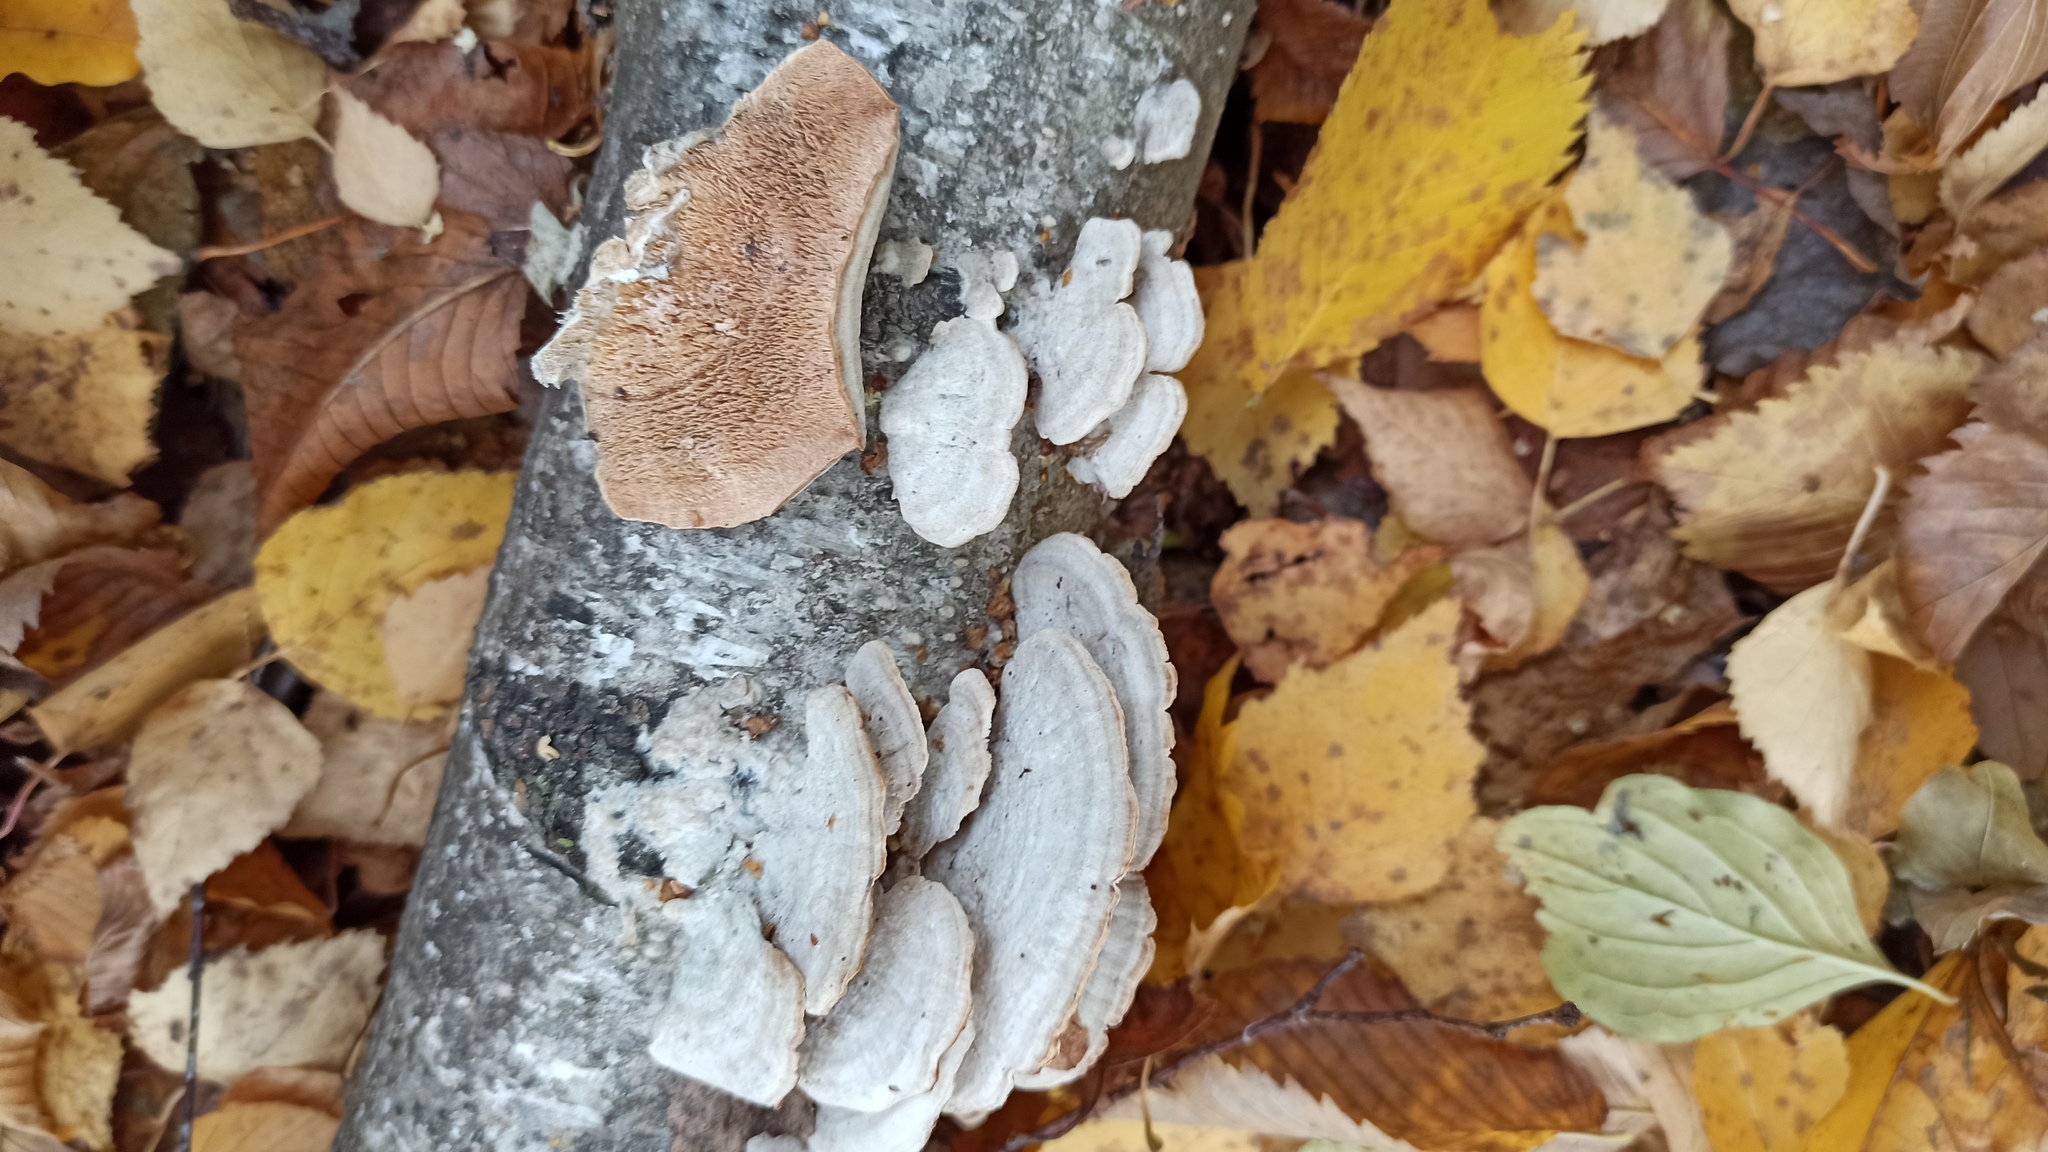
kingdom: Fungi
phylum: Basidiomycota
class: Agaricomycetes
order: Hymenochaetales
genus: Trichaptum
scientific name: Trichaptum biforme
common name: Violet-toothed polypore
